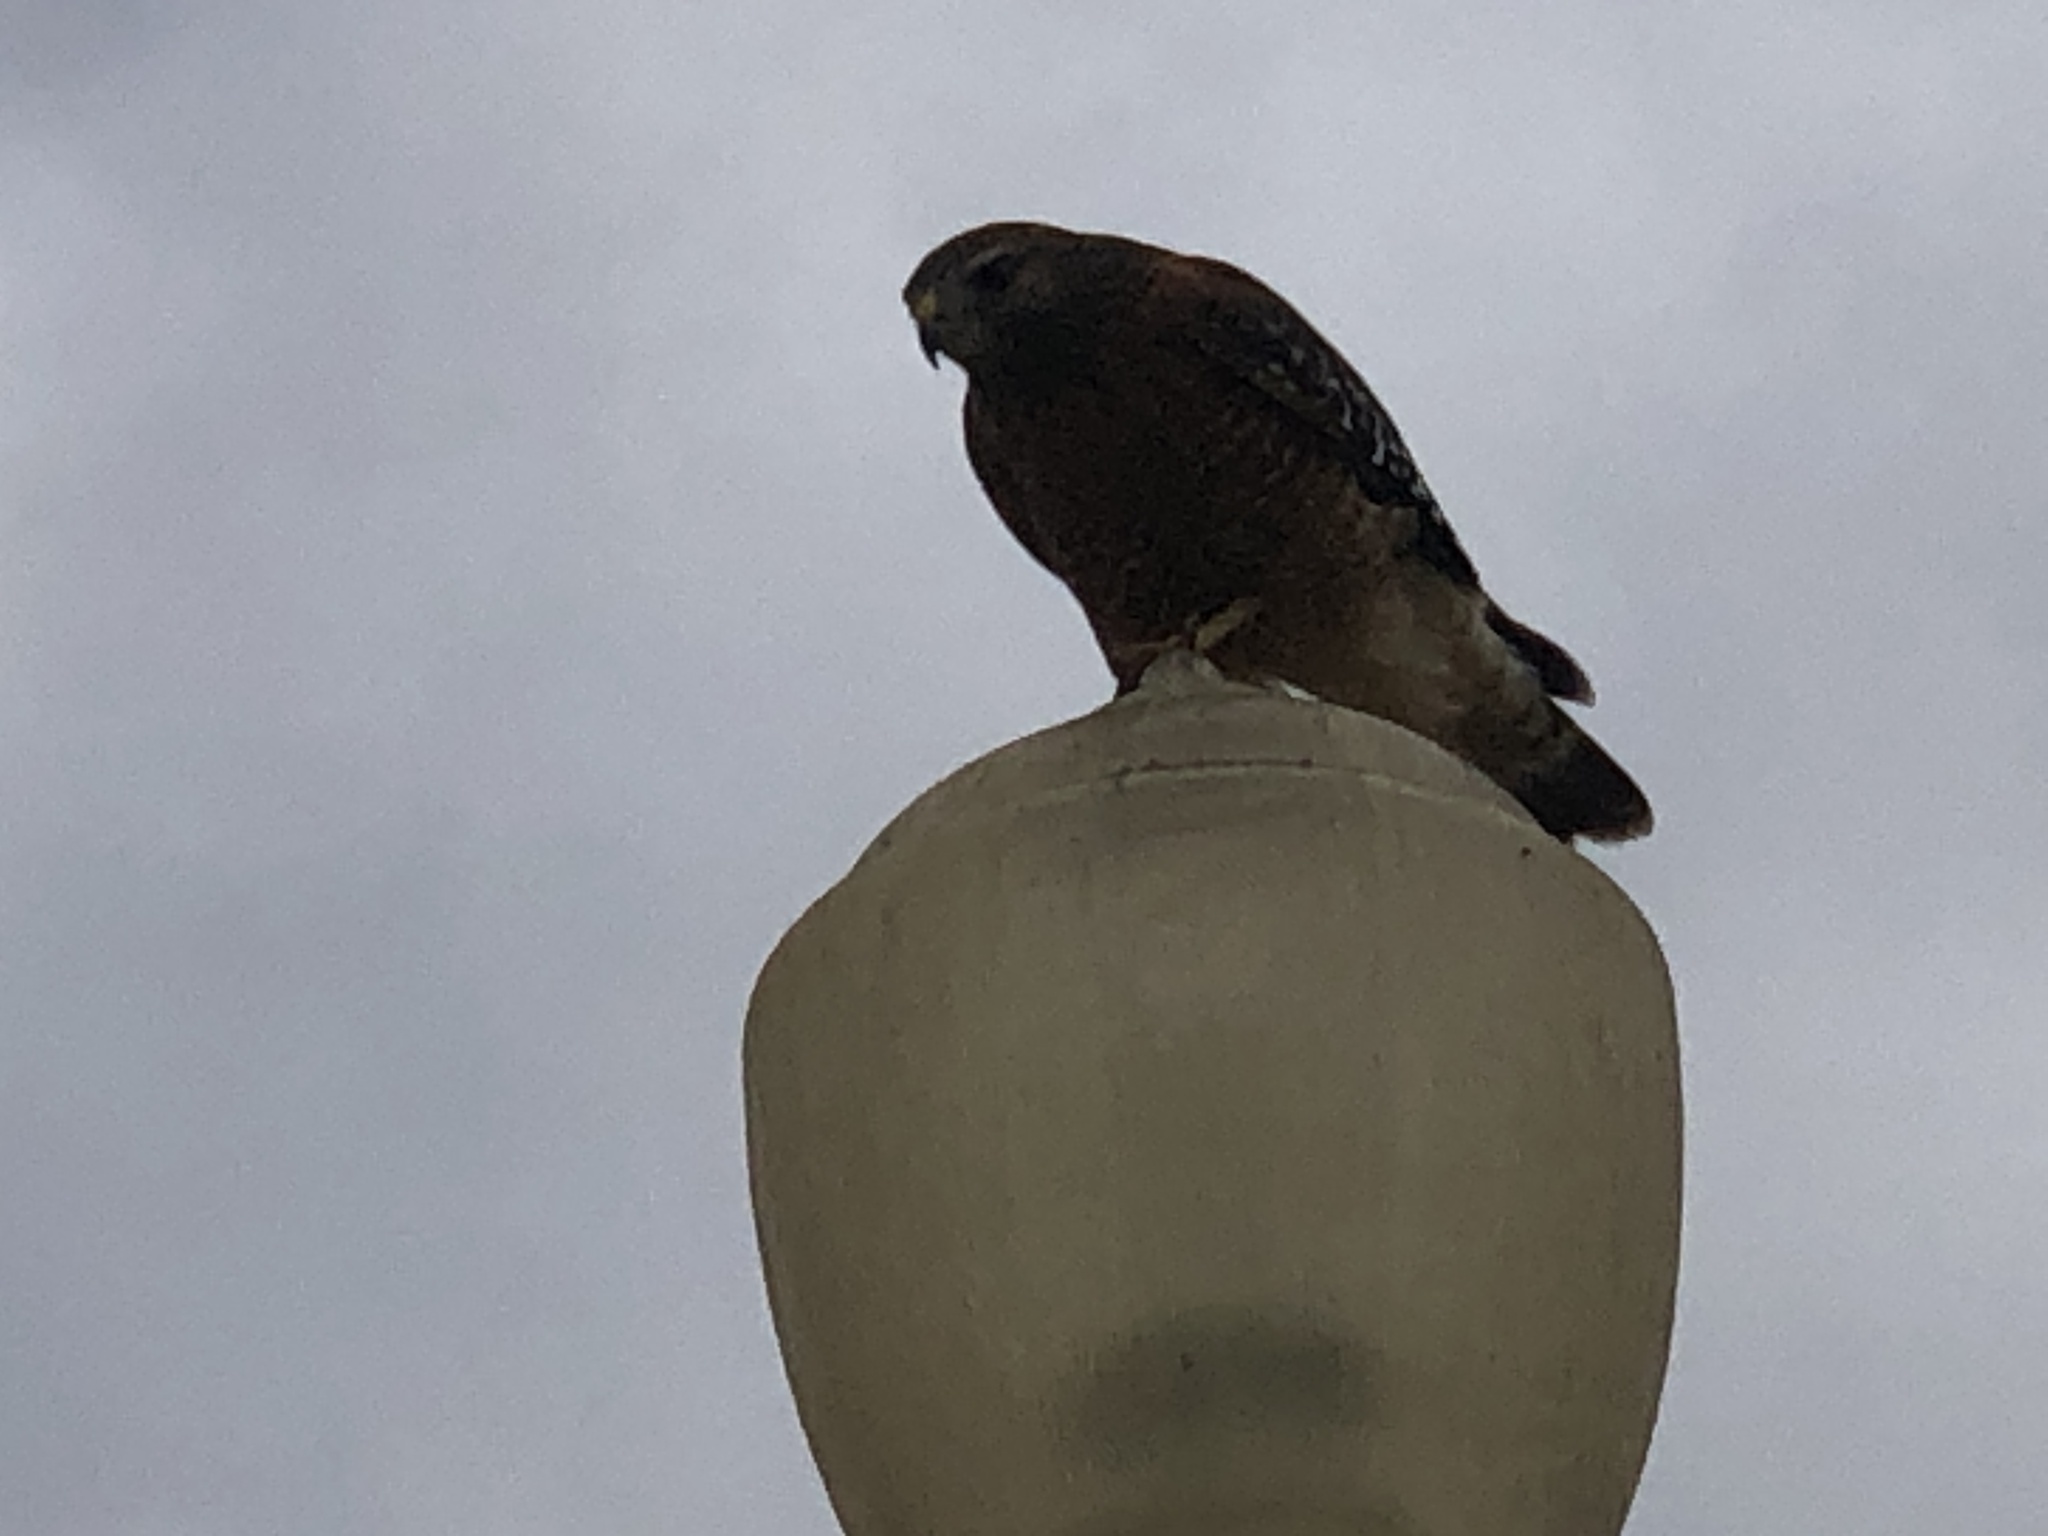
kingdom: Animalia
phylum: Chordata
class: Aves
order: Accipitriformes
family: Accipitridae
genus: Buteo
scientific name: Buteo lineatus
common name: Red-shouldered hawk
